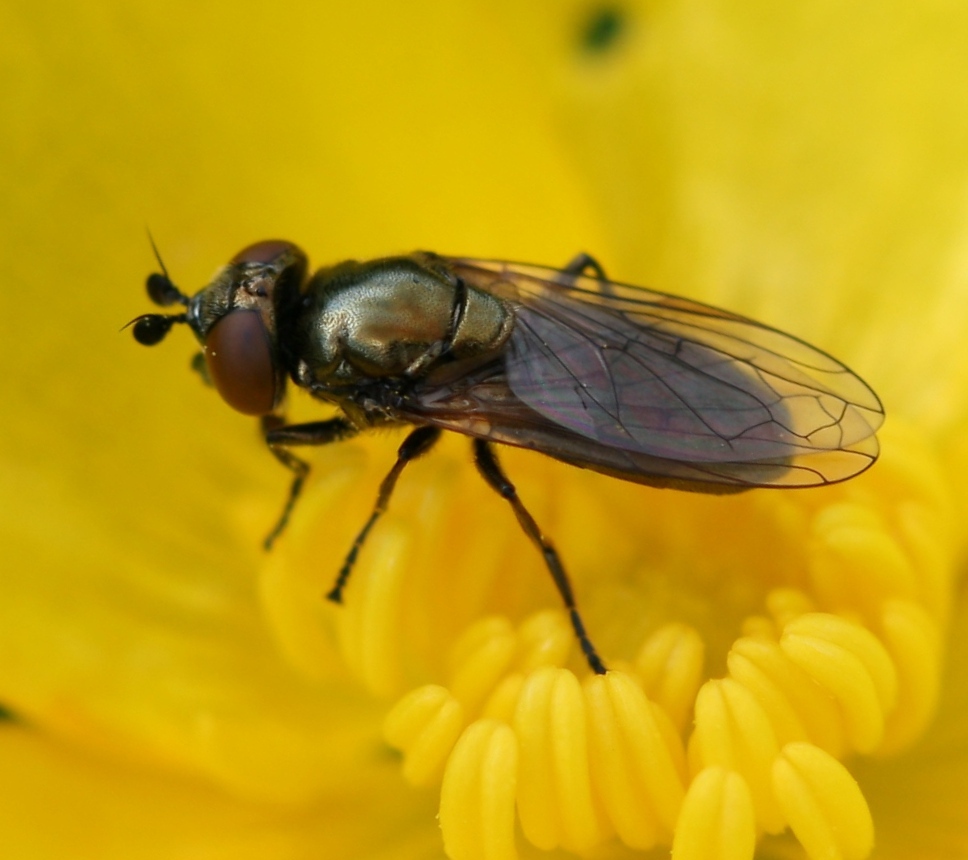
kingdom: Animalia
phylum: Arthropoda
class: Insecta
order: Diptera
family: Syrphidae
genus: Lejogaster
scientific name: Lejogaster metallina
